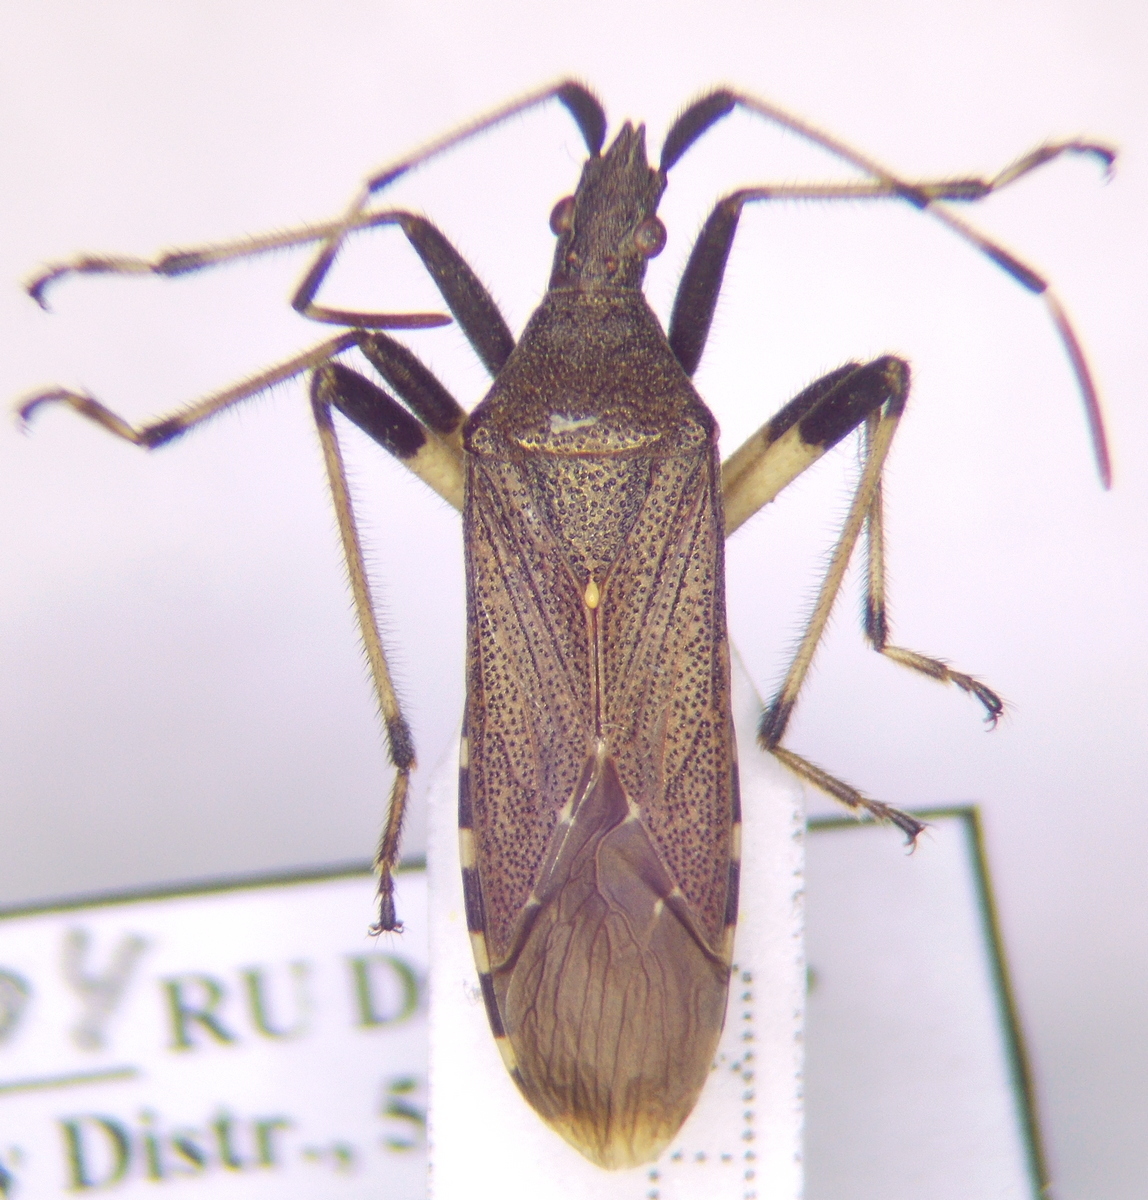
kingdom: Animalia
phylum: Arthropoda
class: Insecta
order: Hemiptera
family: Stenocephalidae
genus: Dicranocephalus
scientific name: Dicranocephalus albipes
